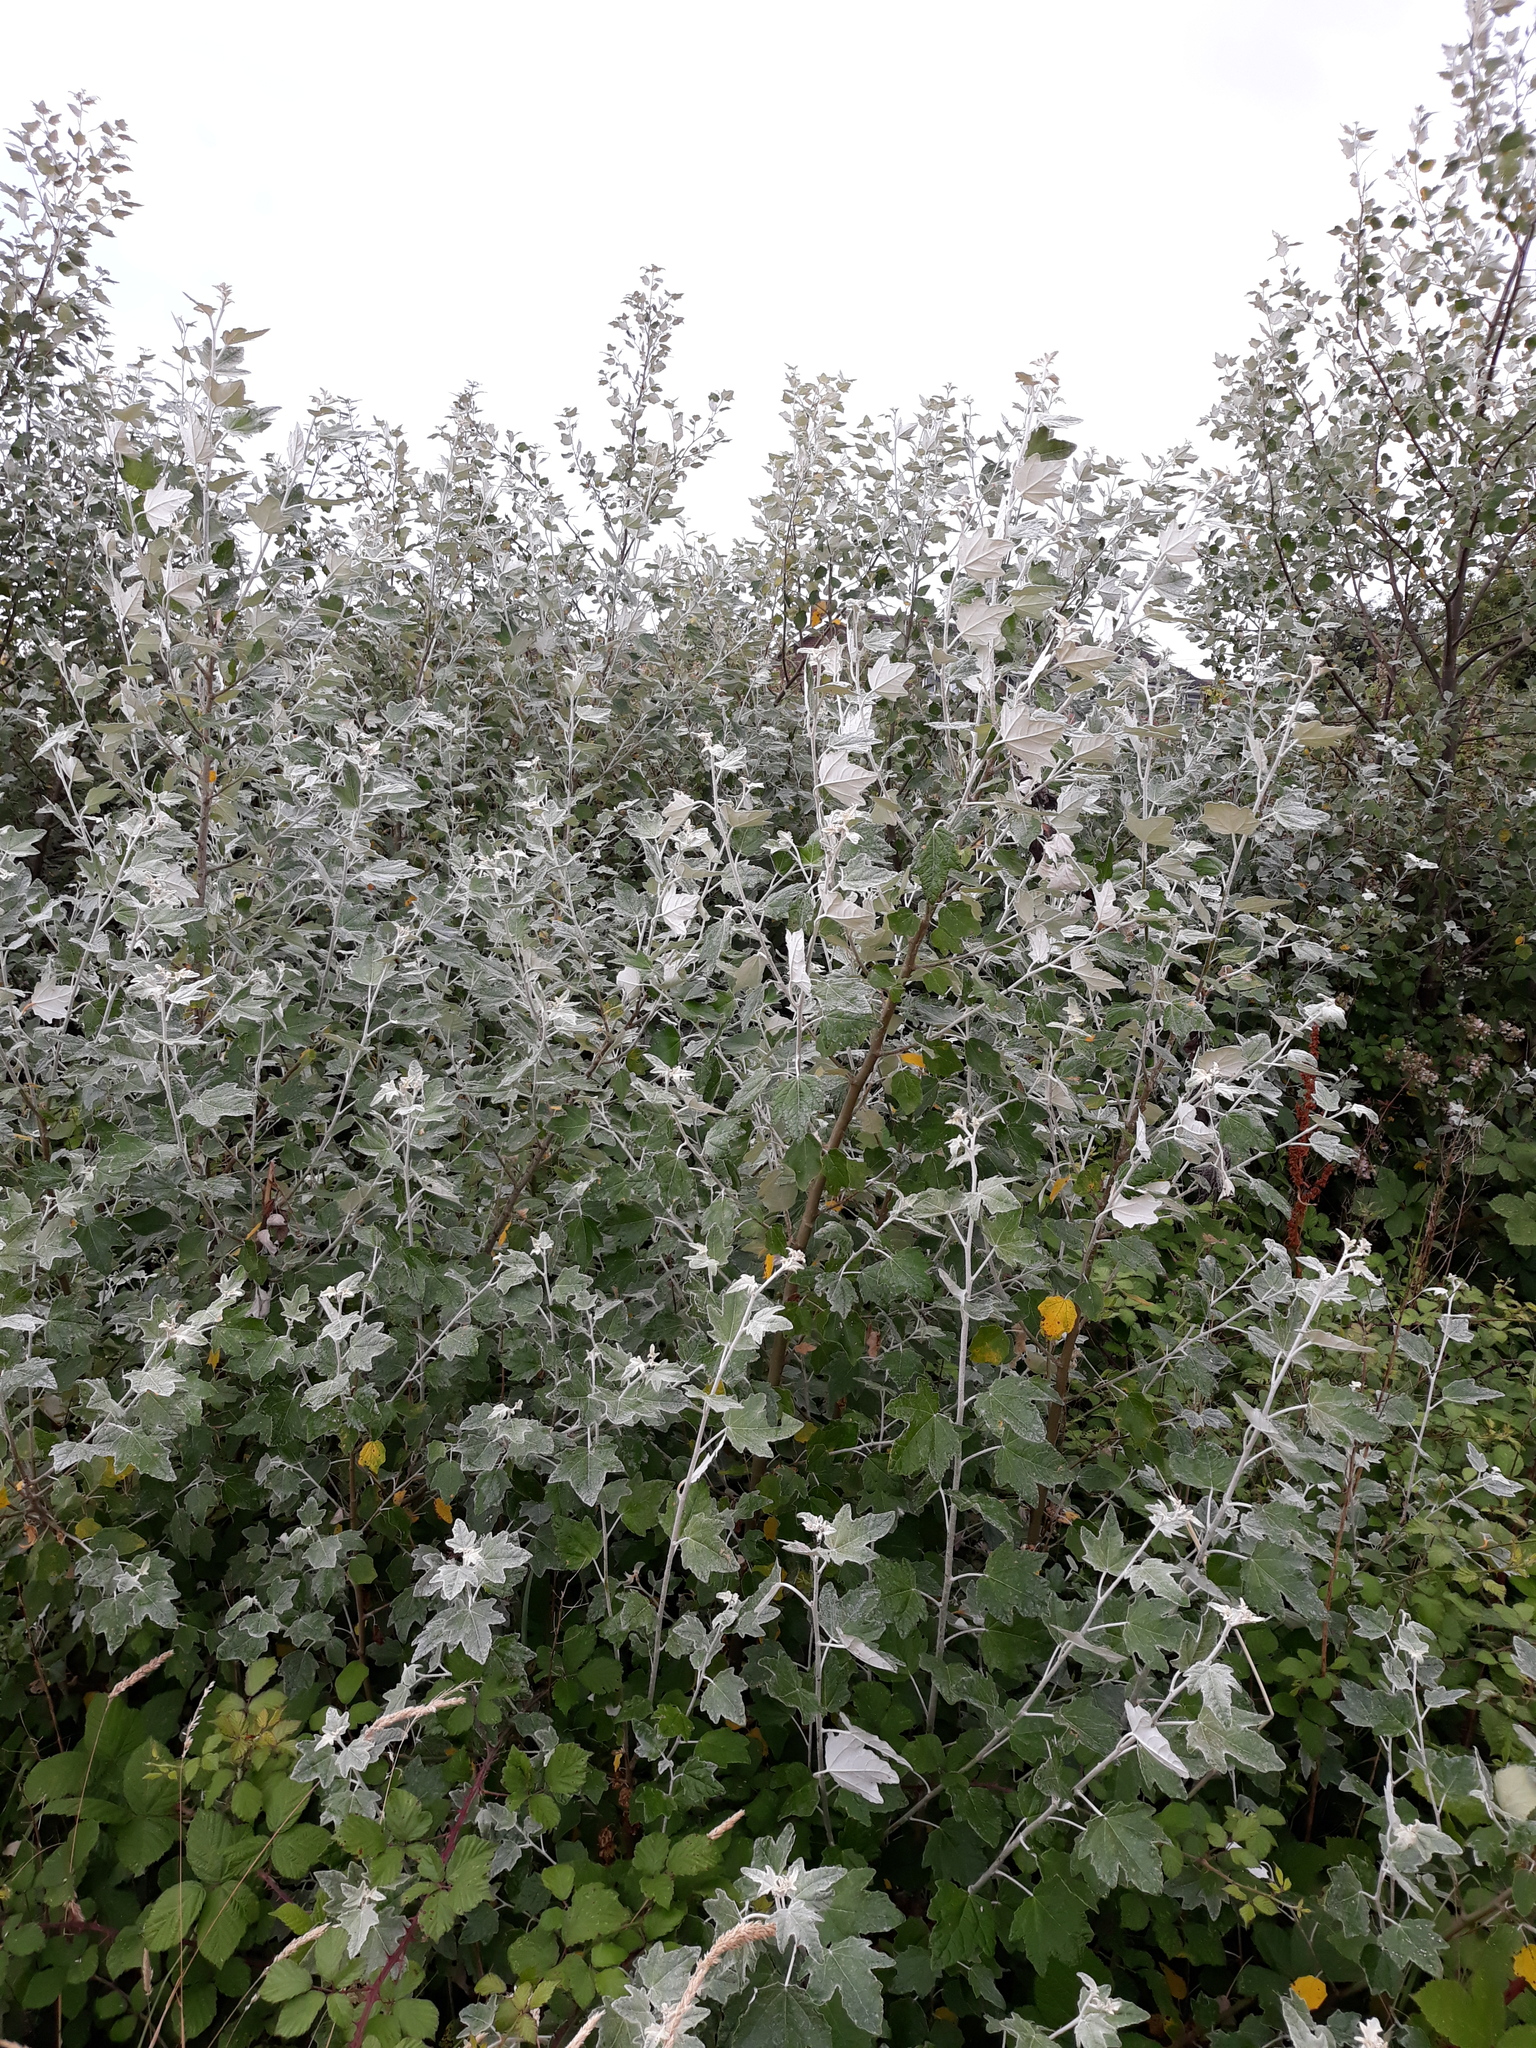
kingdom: Plantae
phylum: Tracheophyta
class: Magnoliopsida
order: Malpighiales
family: Salicaceae
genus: Populus
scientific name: Populus alba
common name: White poplar
